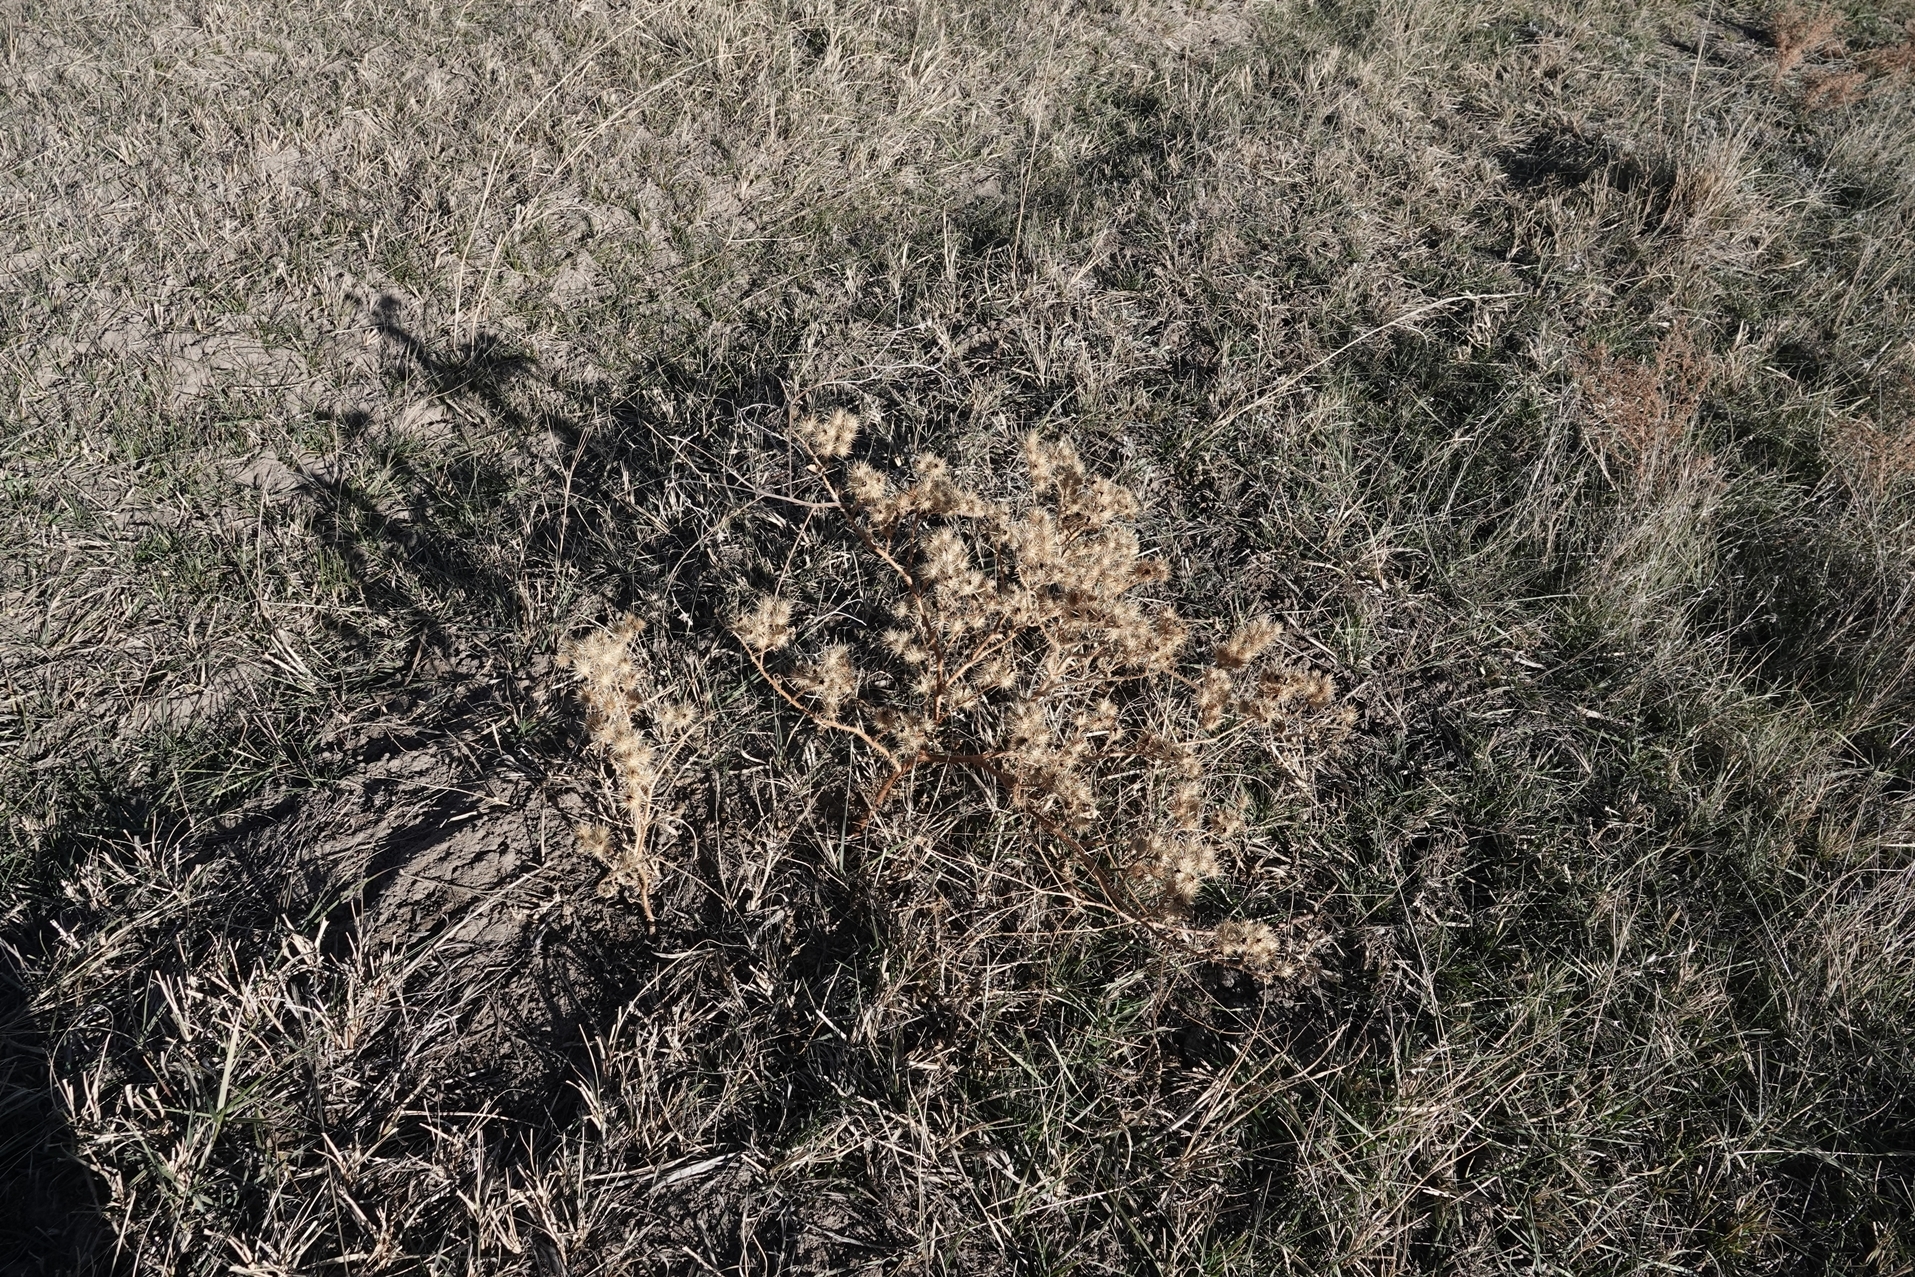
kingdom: Plantae
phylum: Tracheophyta
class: Magnoliopsida
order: Solanales
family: Solanaceae
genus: Solanum
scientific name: Solanum angustifolium
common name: Buffalobur nightshade
